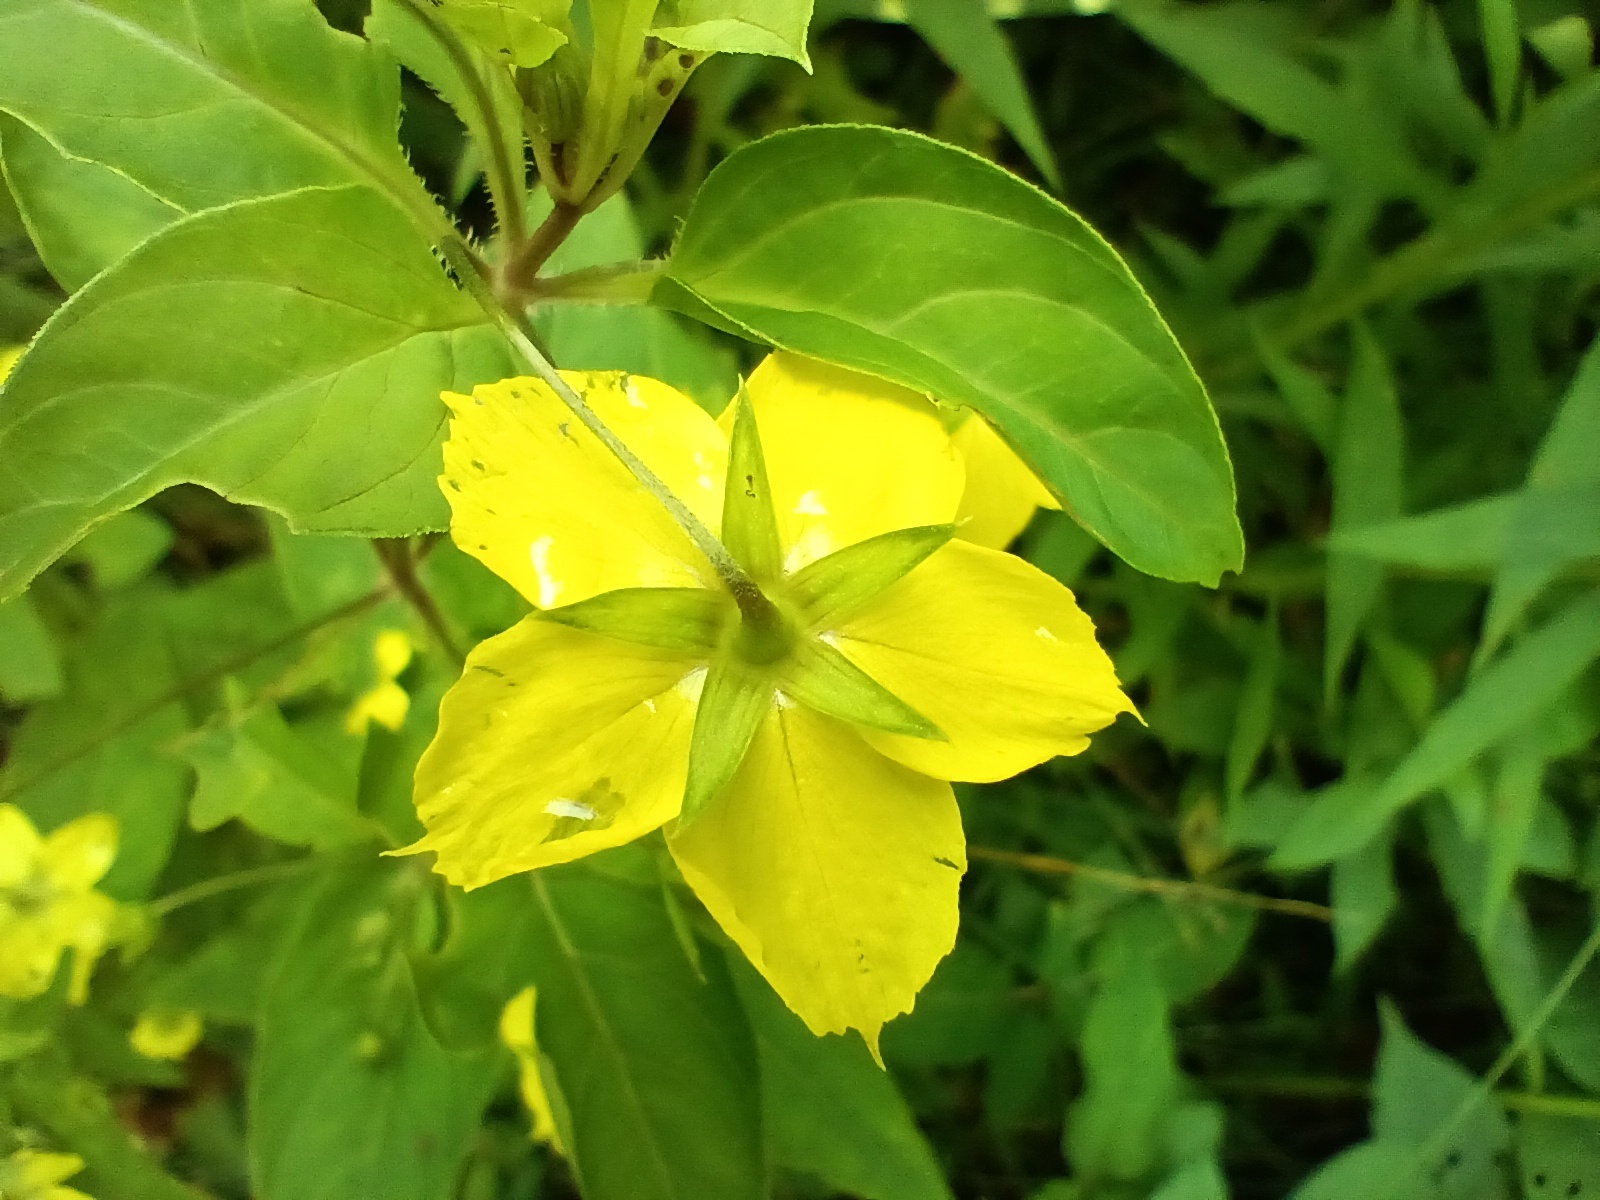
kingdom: Plantae
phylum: Tracheophyta
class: Magnoliopsida
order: Ericales
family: Primulaceae
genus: Lysimachia
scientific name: Lysimachia ciliata
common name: Fringed loosestrife
